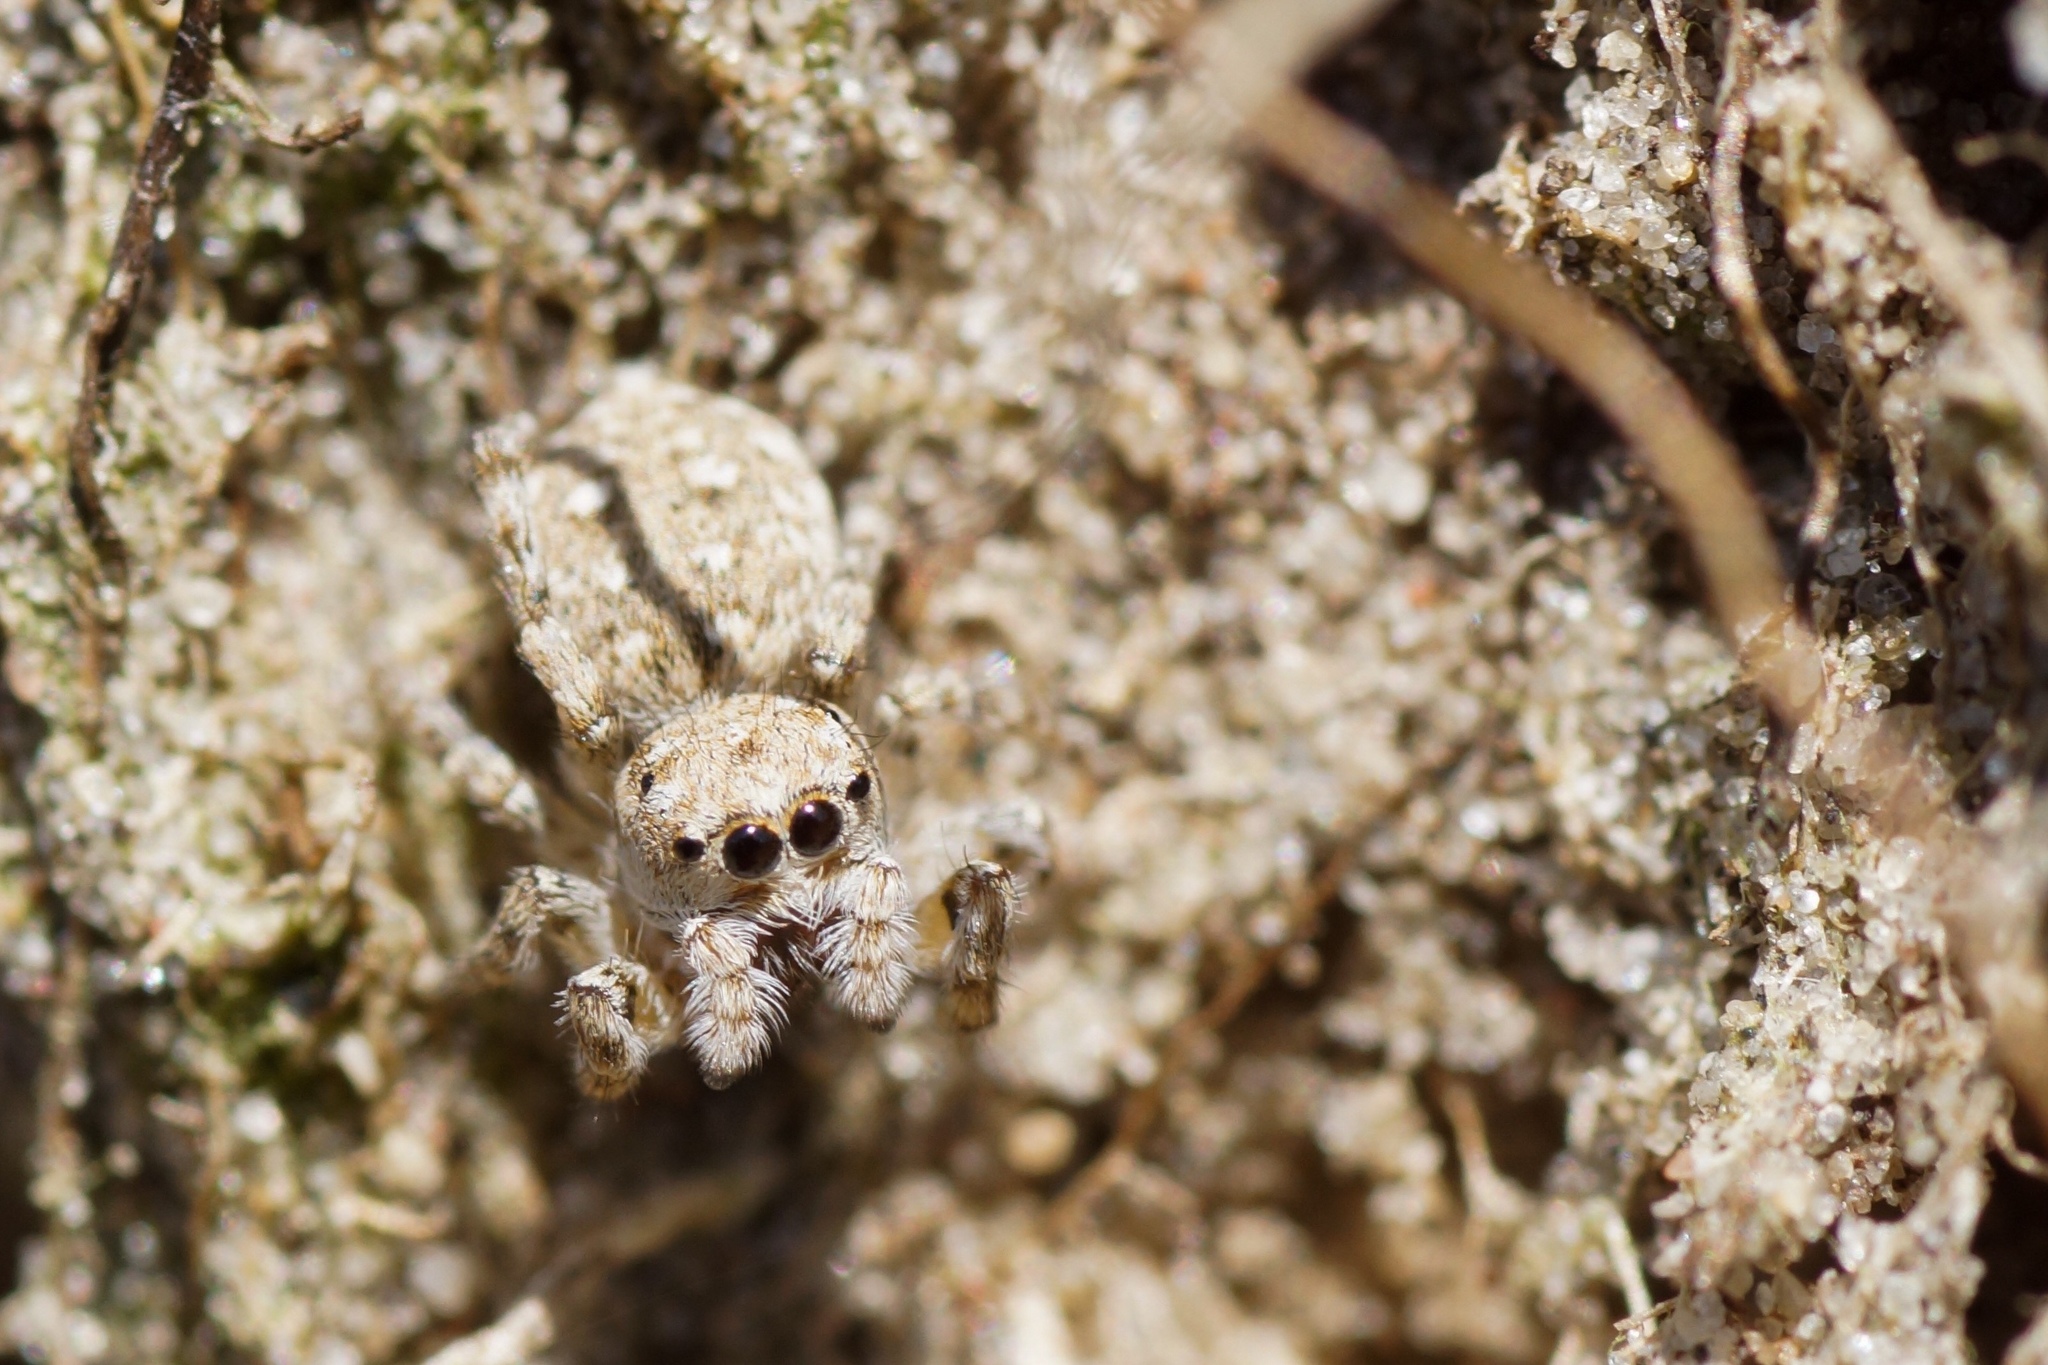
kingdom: Animalia
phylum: Arthropoda
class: Arachnida
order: Araneae
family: Salticidae
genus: Attulus
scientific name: Attulus distinguendus
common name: Distinguished jumper
